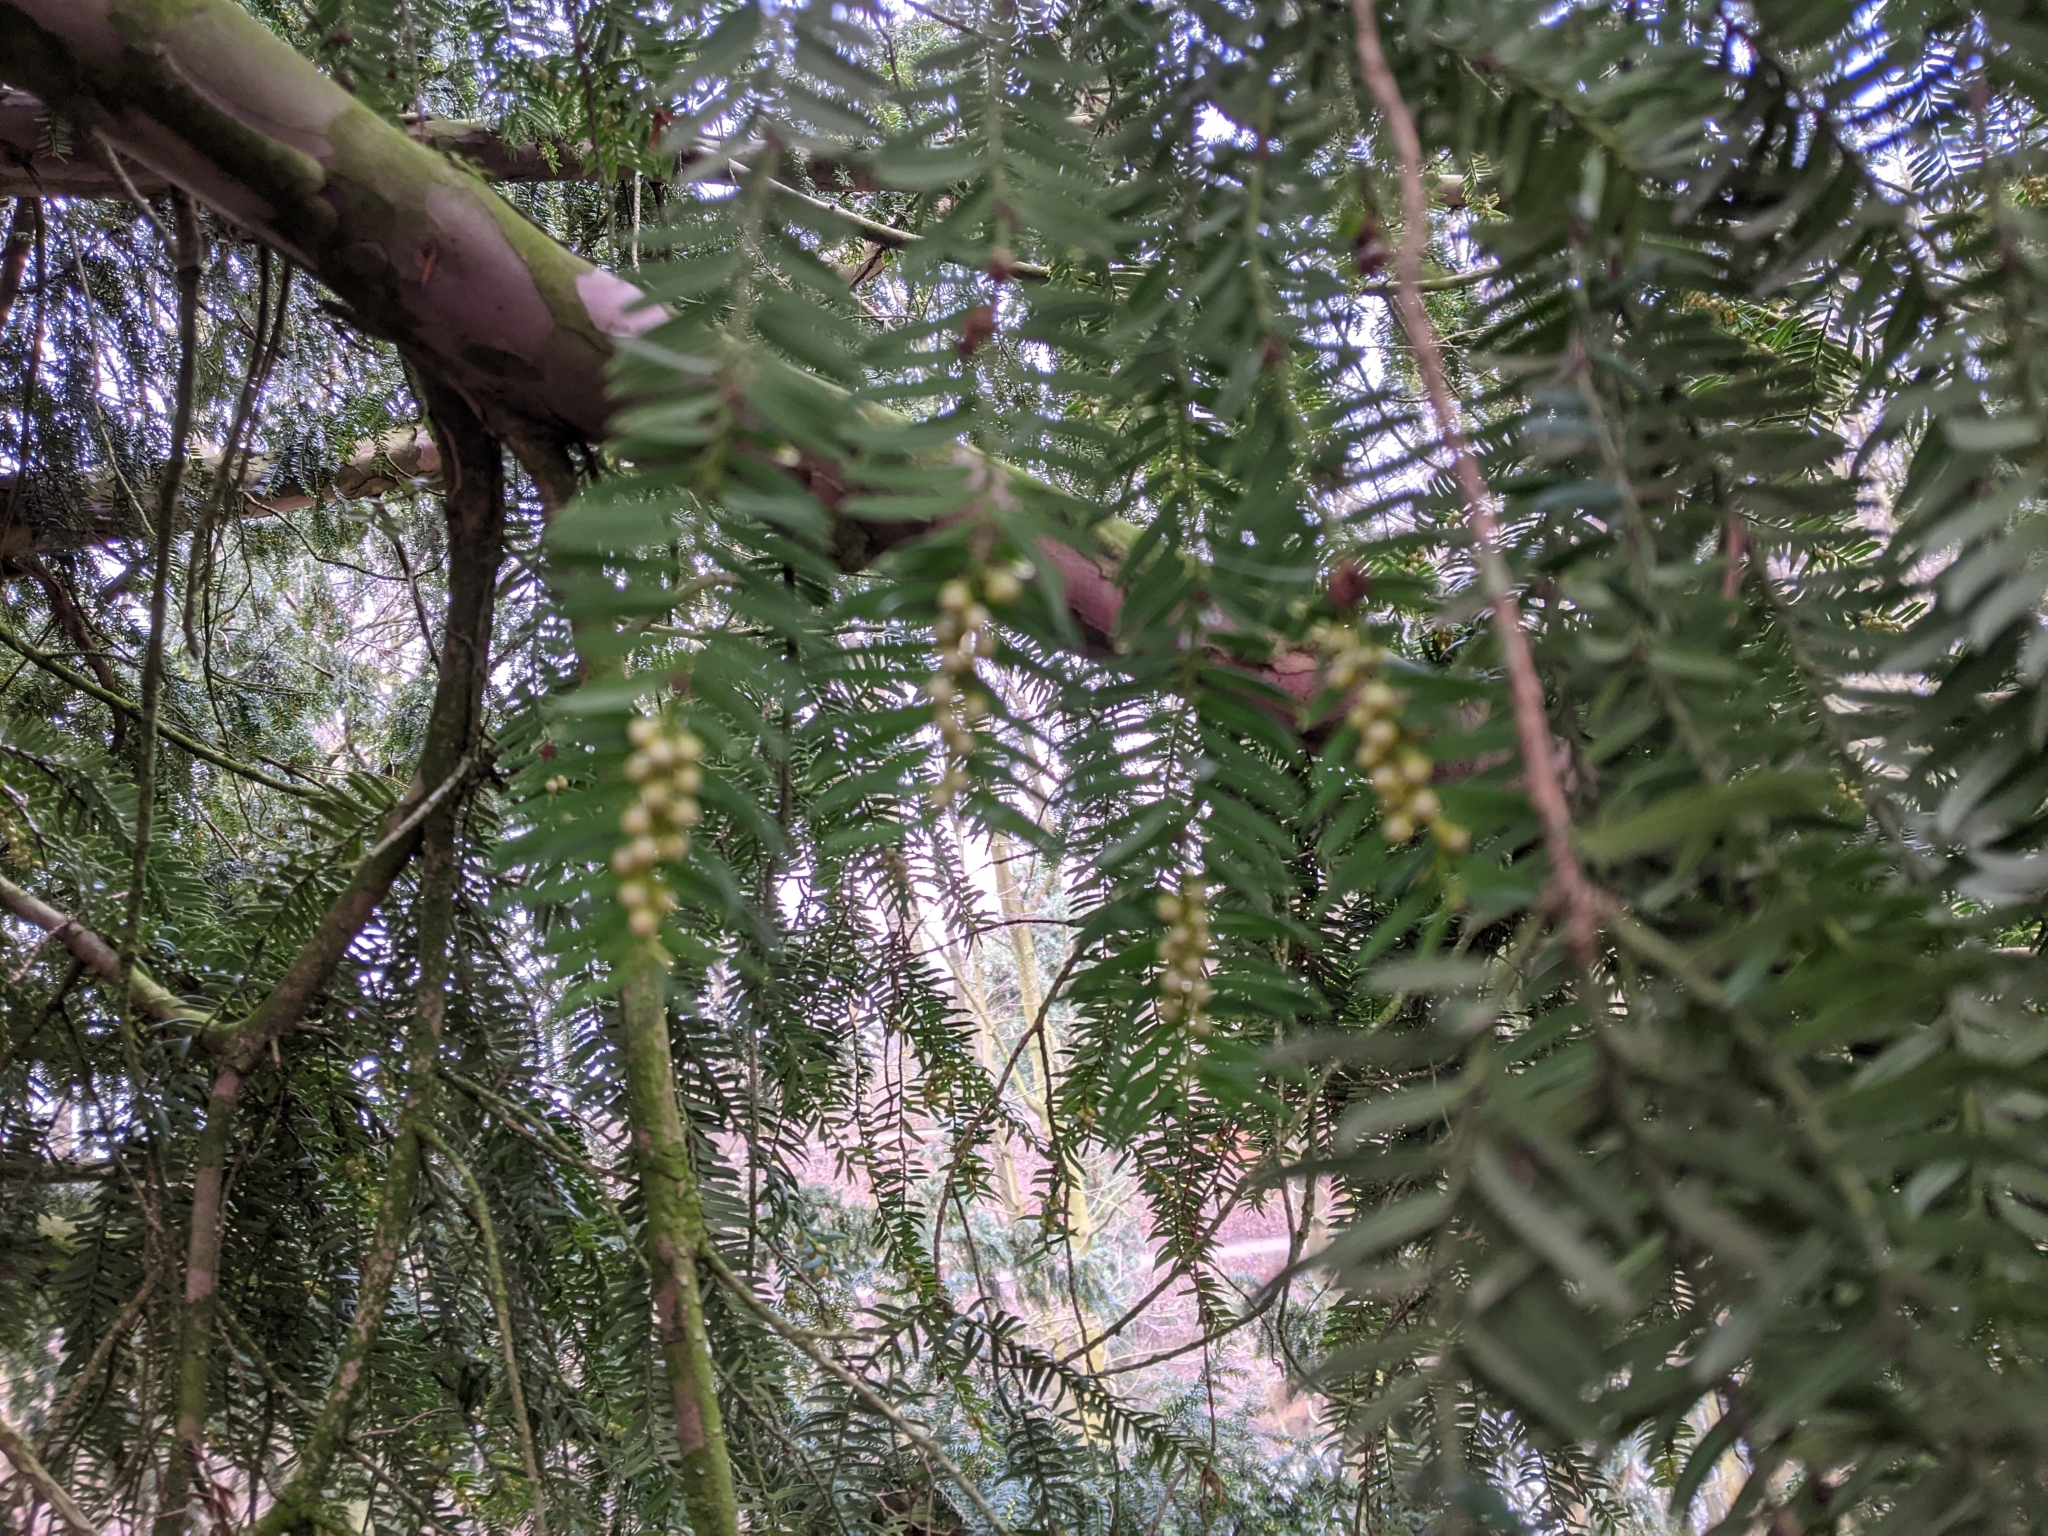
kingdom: Plantae
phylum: Tracheophyta
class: Pinopsida
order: Pinales
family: Taxaceae
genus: Taxus
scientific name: Taxus baccata
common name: Yew
